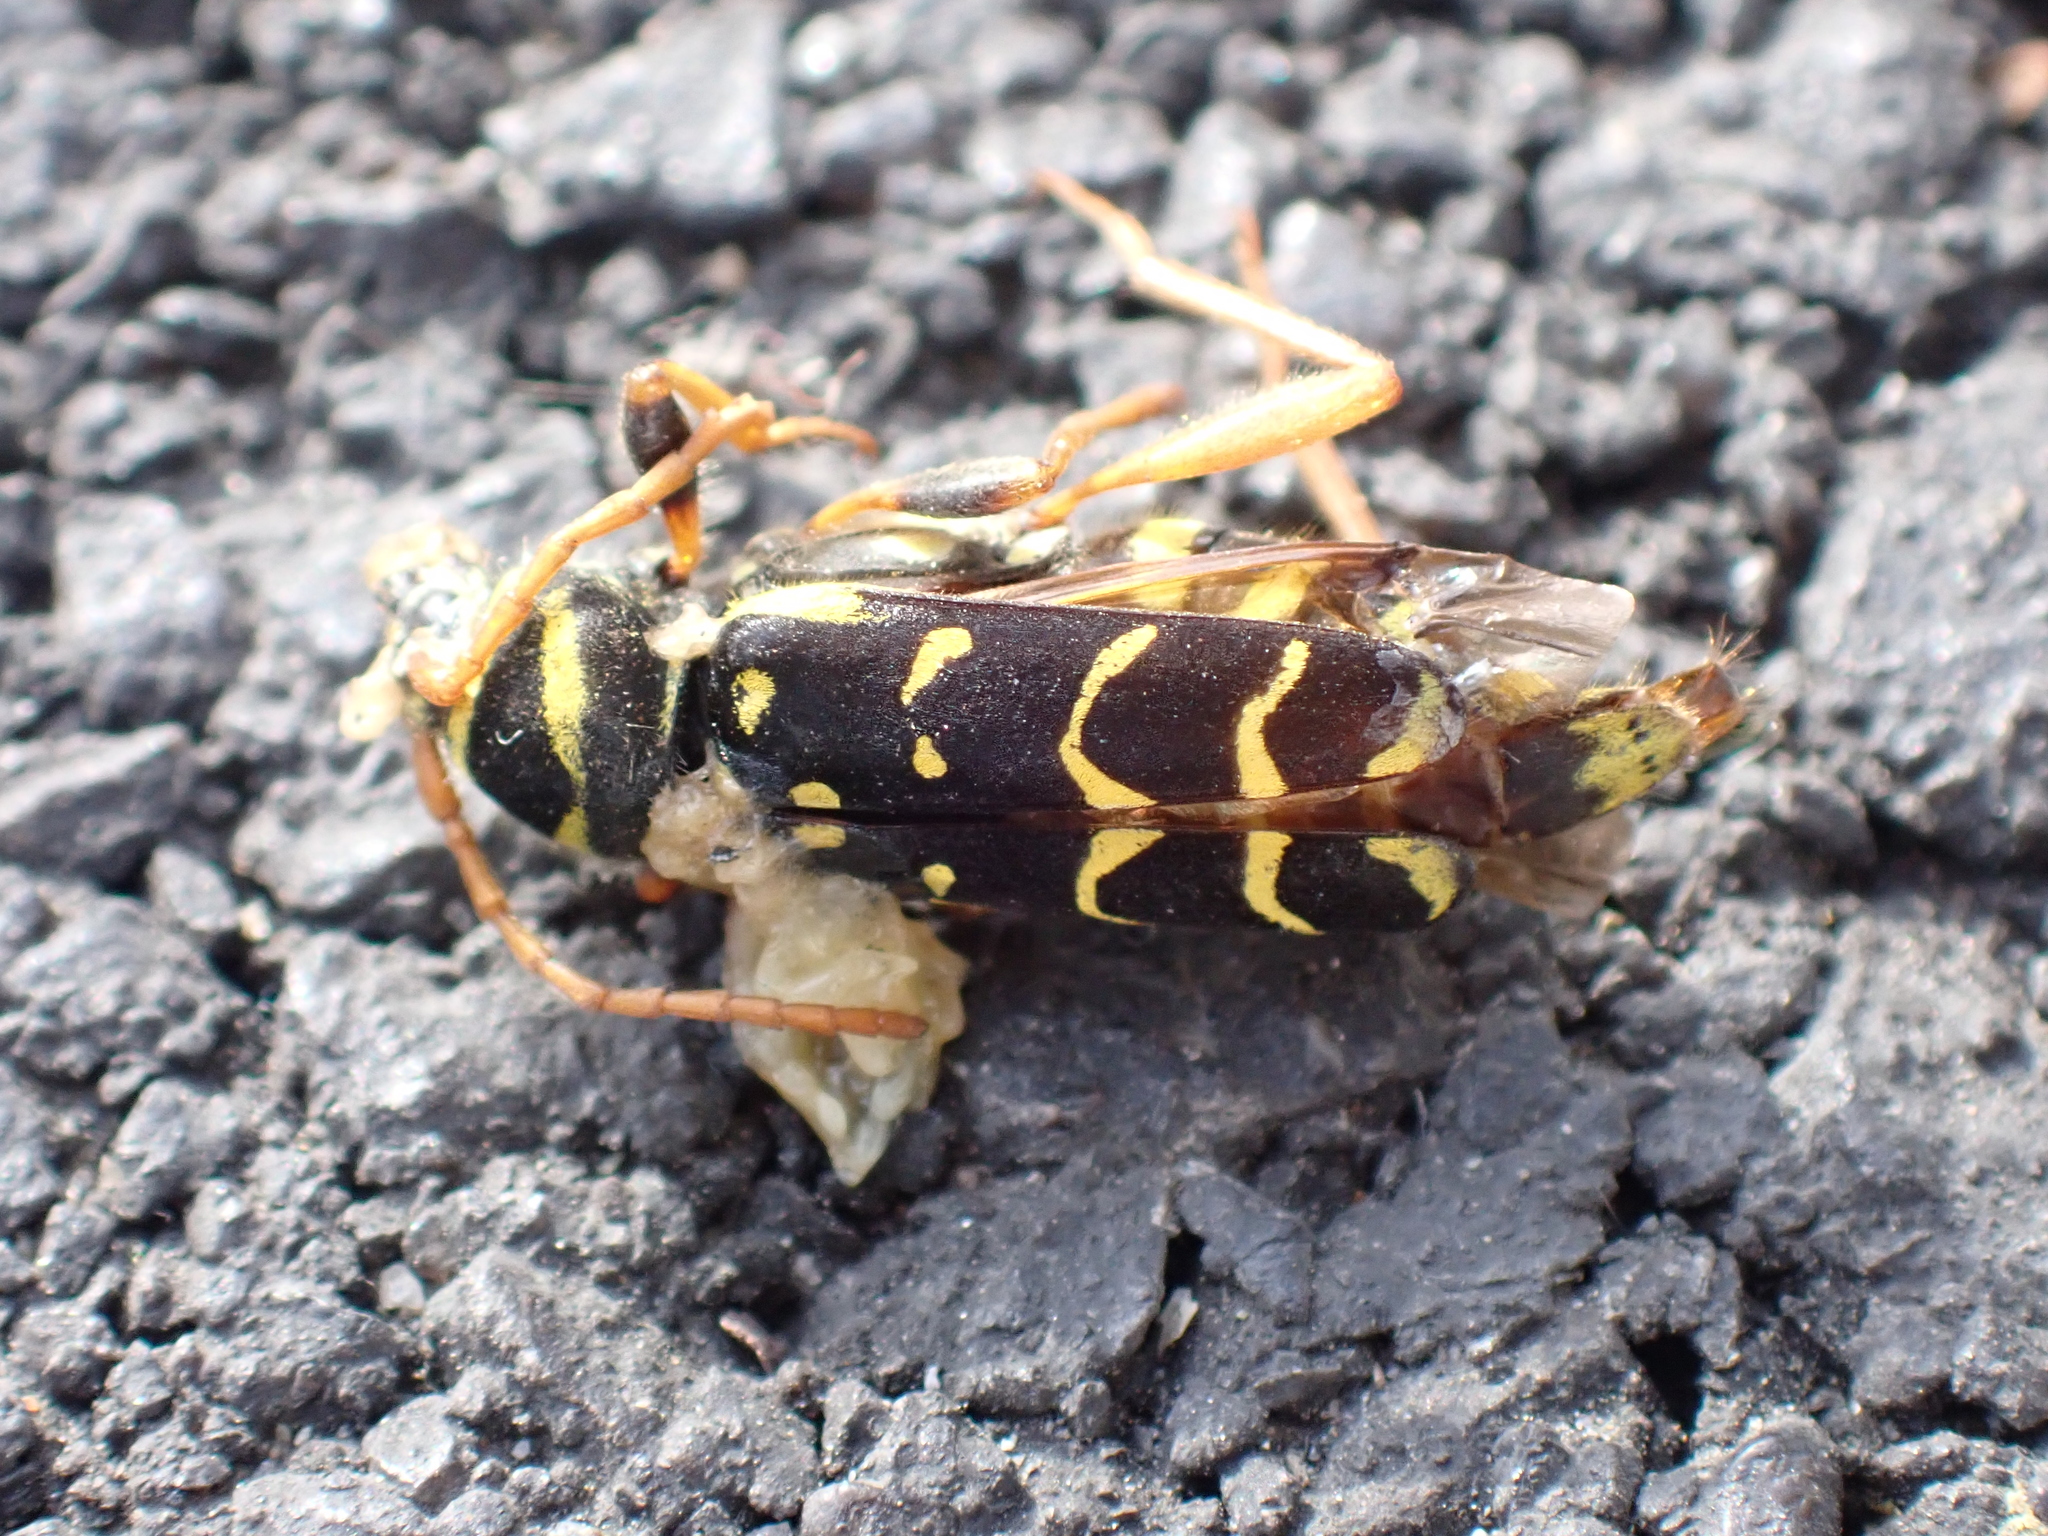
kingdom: Animalia
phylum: Arthropoda
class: Insecta
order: Coleoptera
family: Cerambycidae
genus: Plagionotus
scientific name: Plagionotus arcuatus
